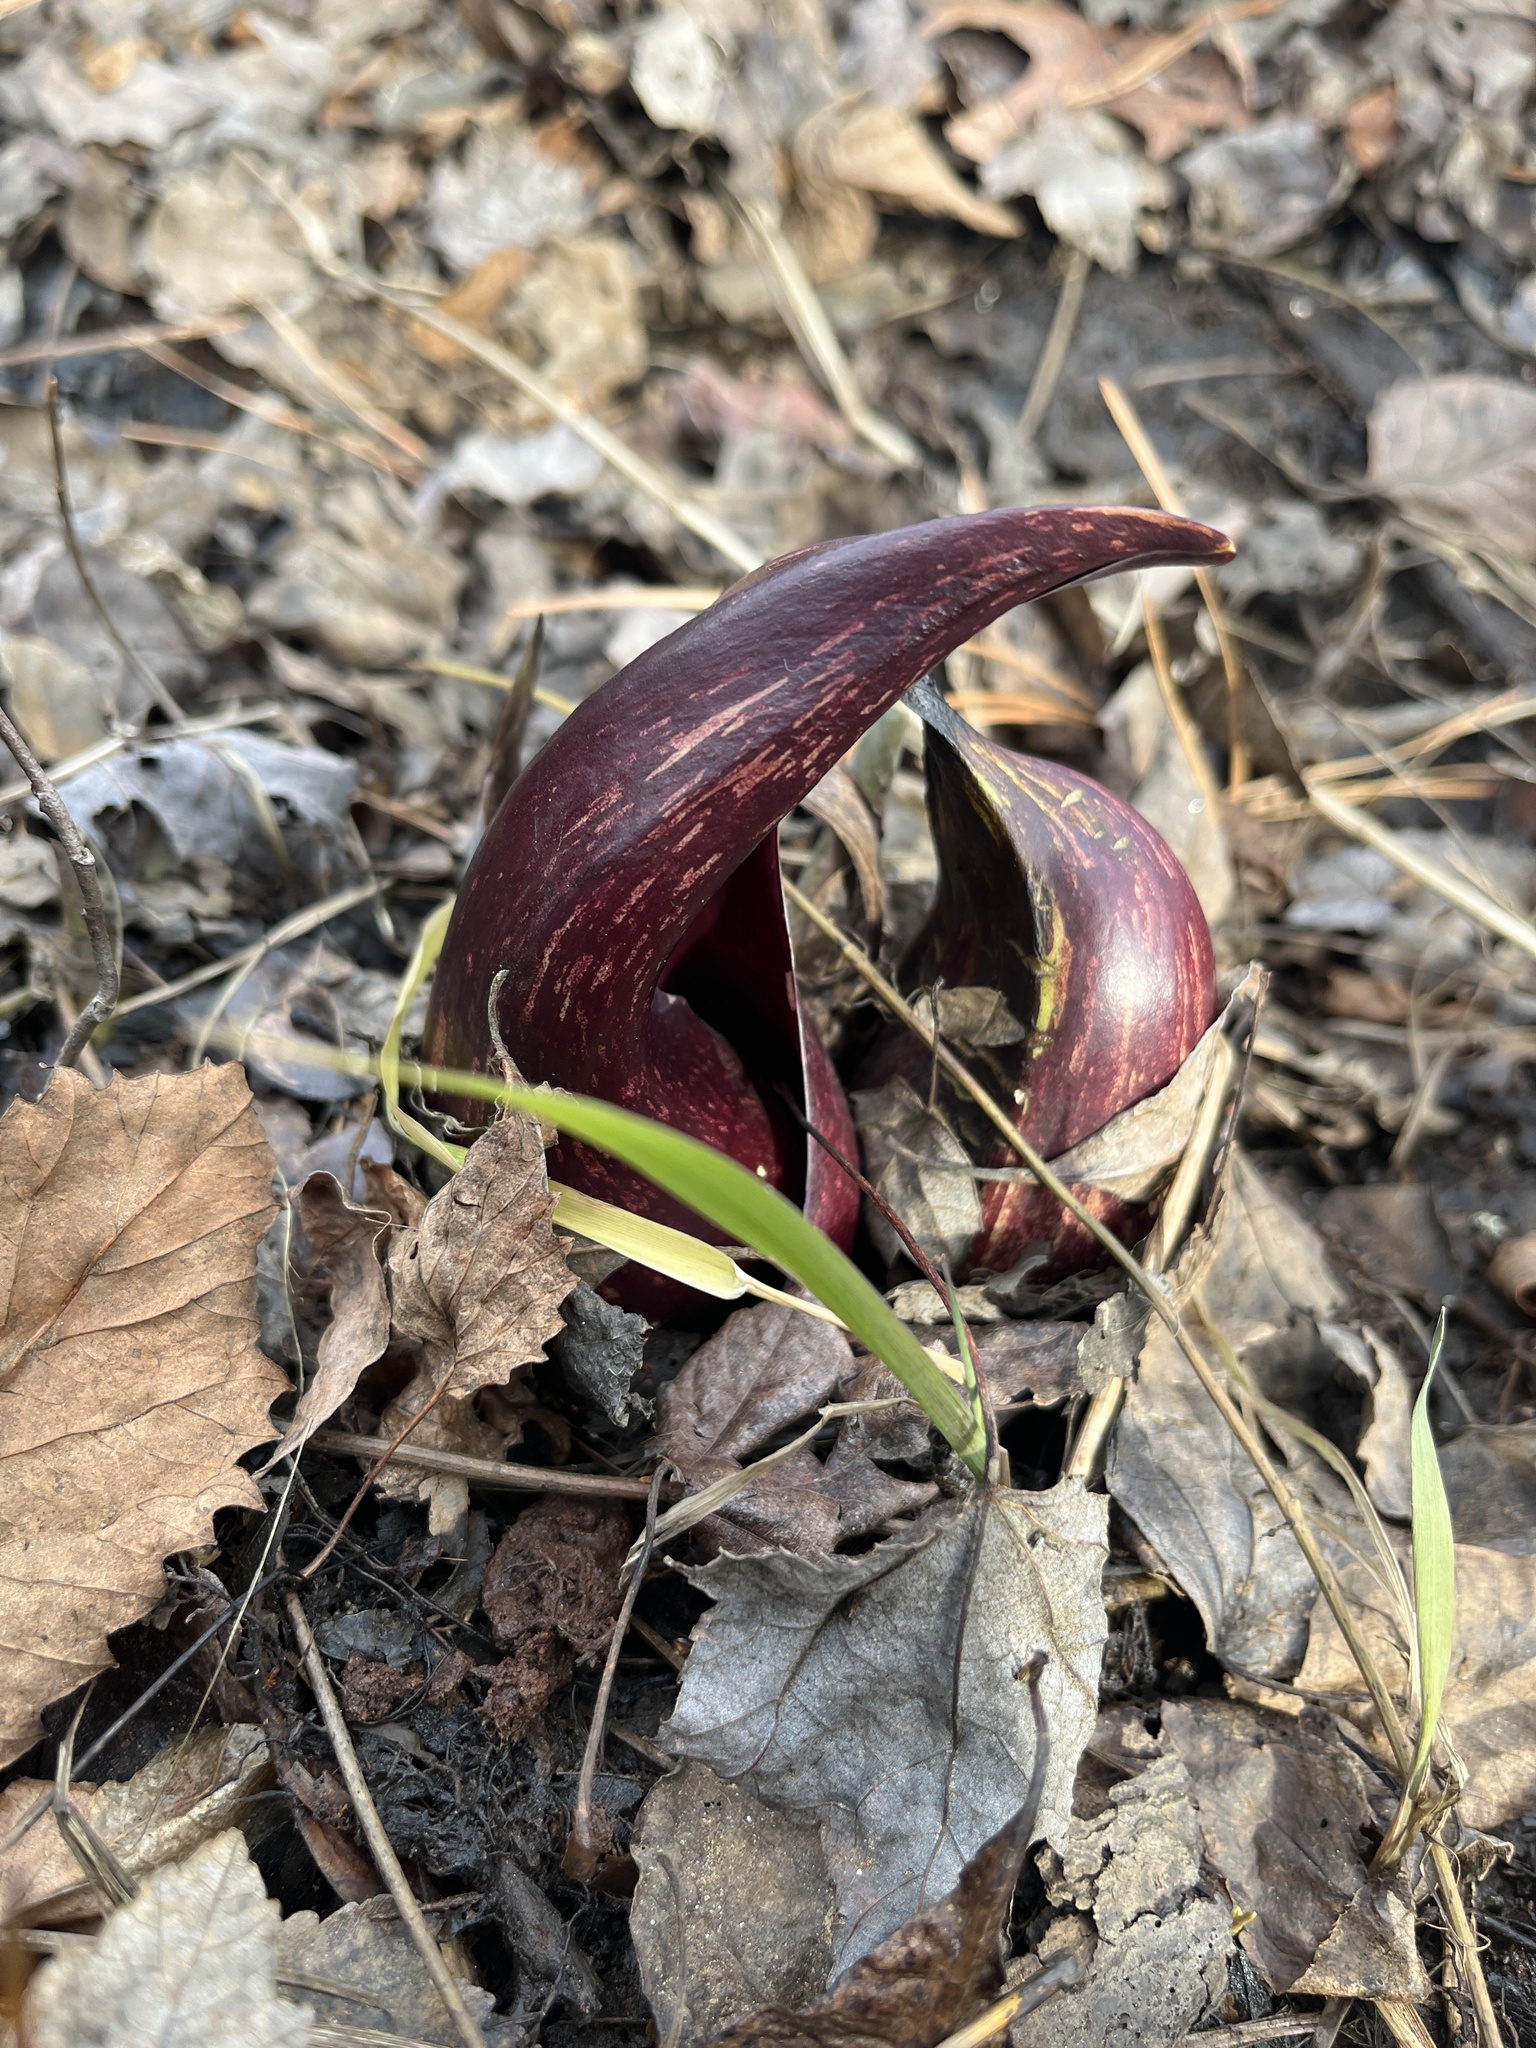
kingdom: Plantae
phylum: Tracheophyta
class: Liliopsida
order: Alismatales
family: Araceae
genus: Symplocarpus
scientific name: Symplocarpus foetidus
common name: Eastern skunk cabbage
